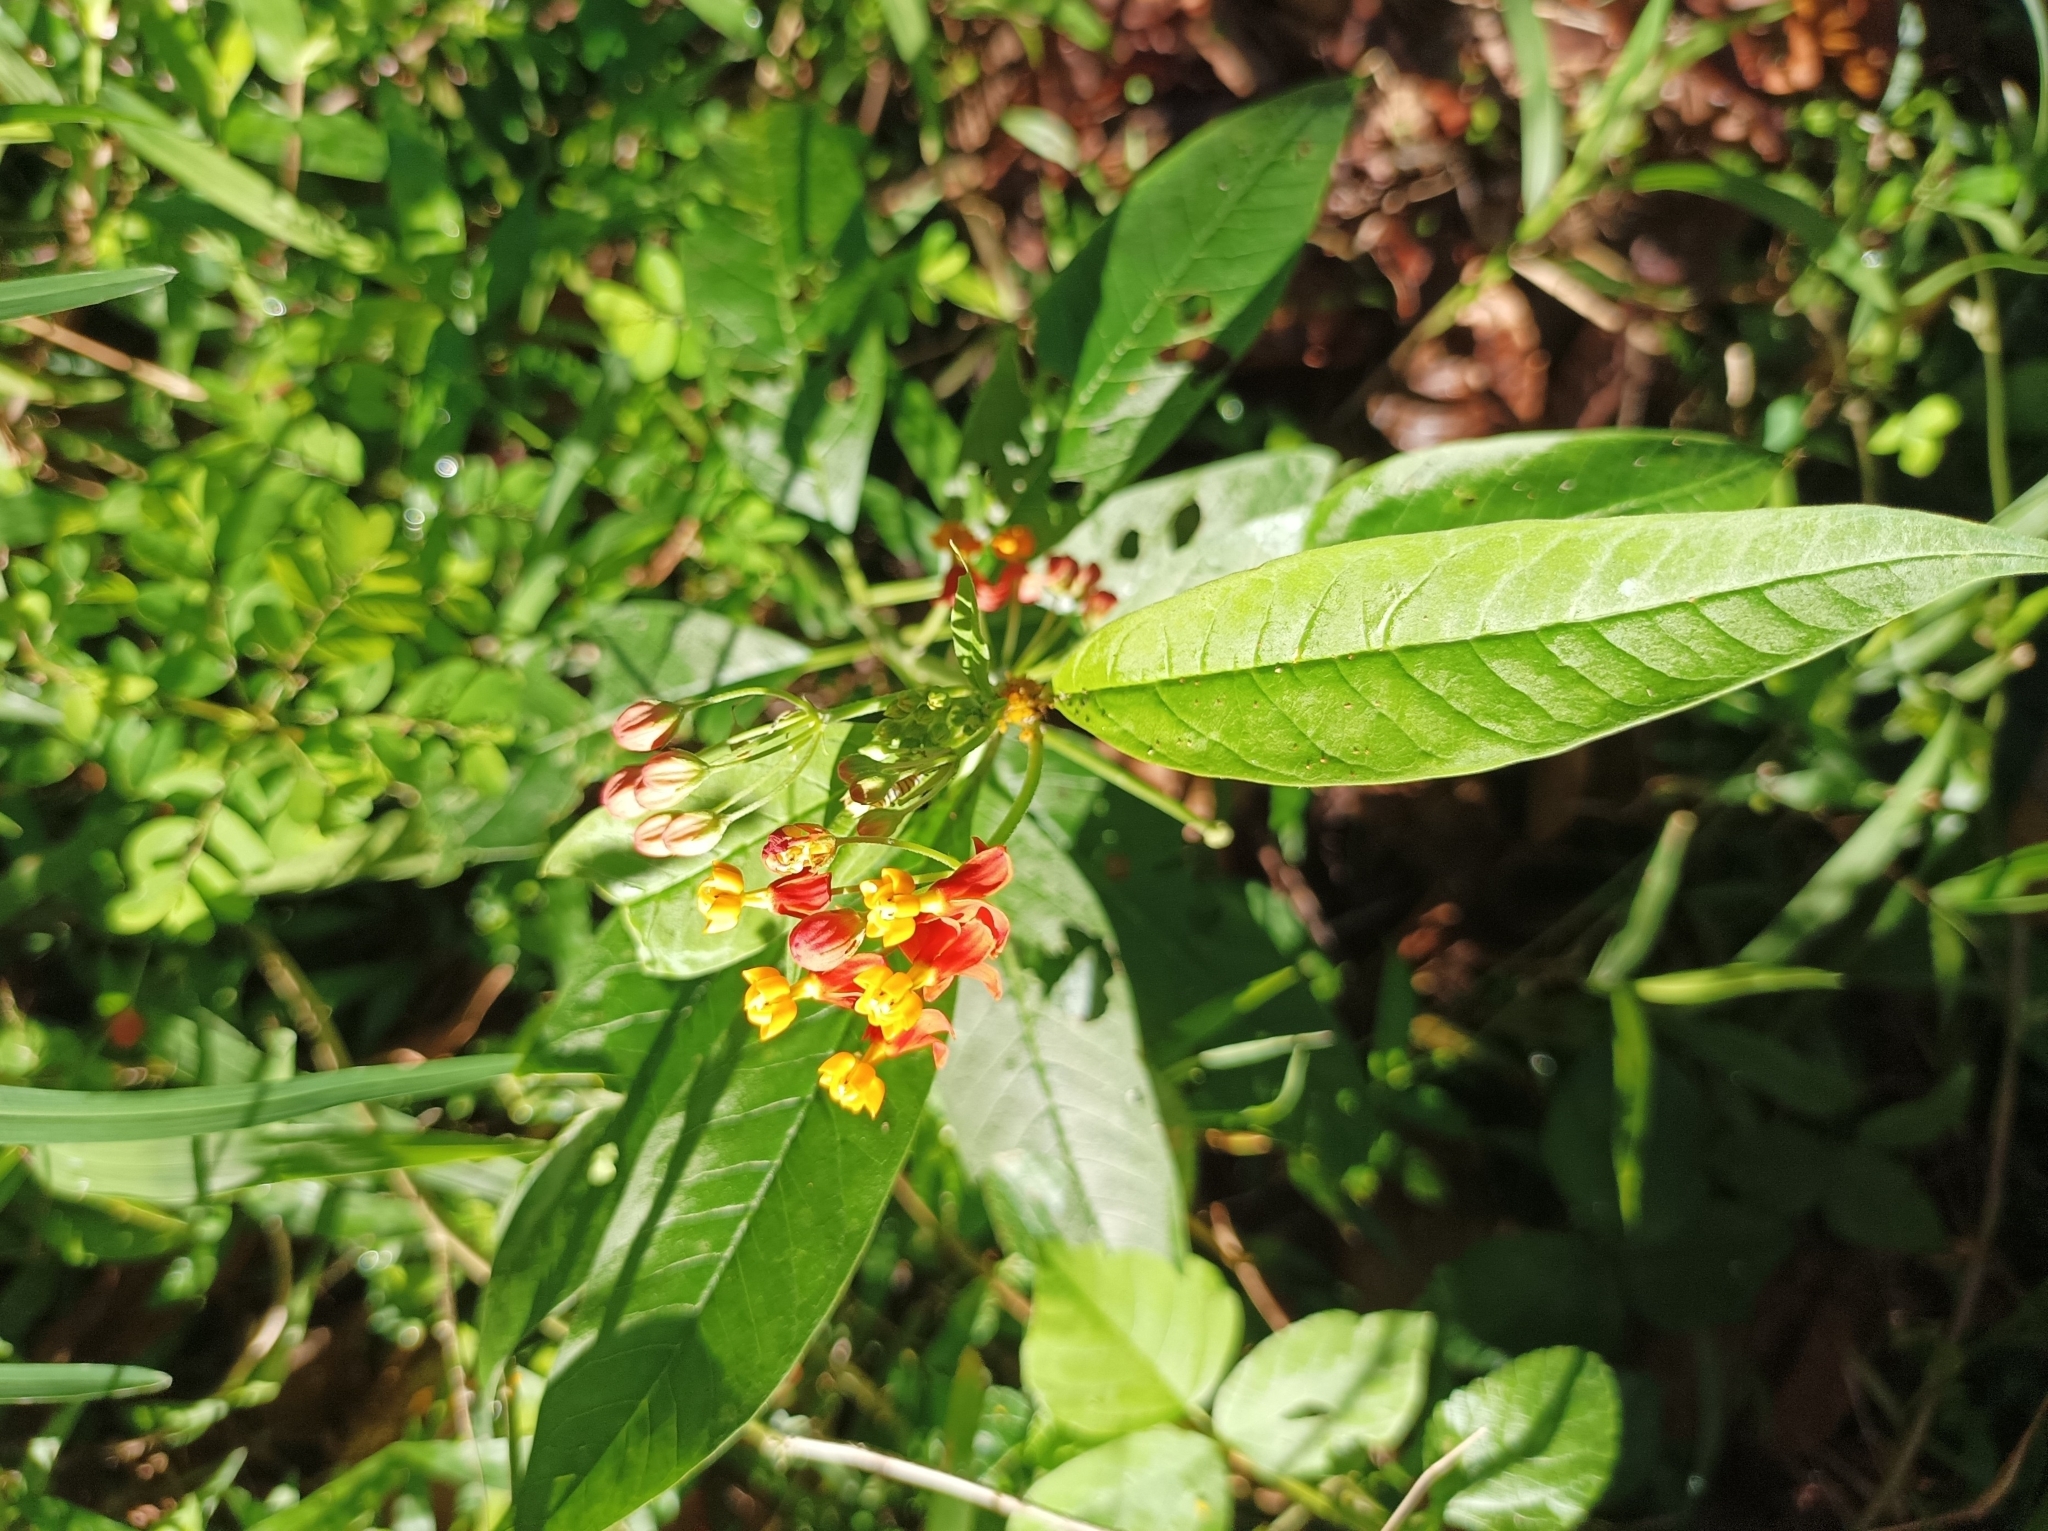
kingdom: Plantae
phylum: Tracheophyta
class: Magnoliopsida
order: Gentianales
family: Apocynaceae
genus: Asclepias
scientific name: Asclepias curassavica
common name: Bloodflower
